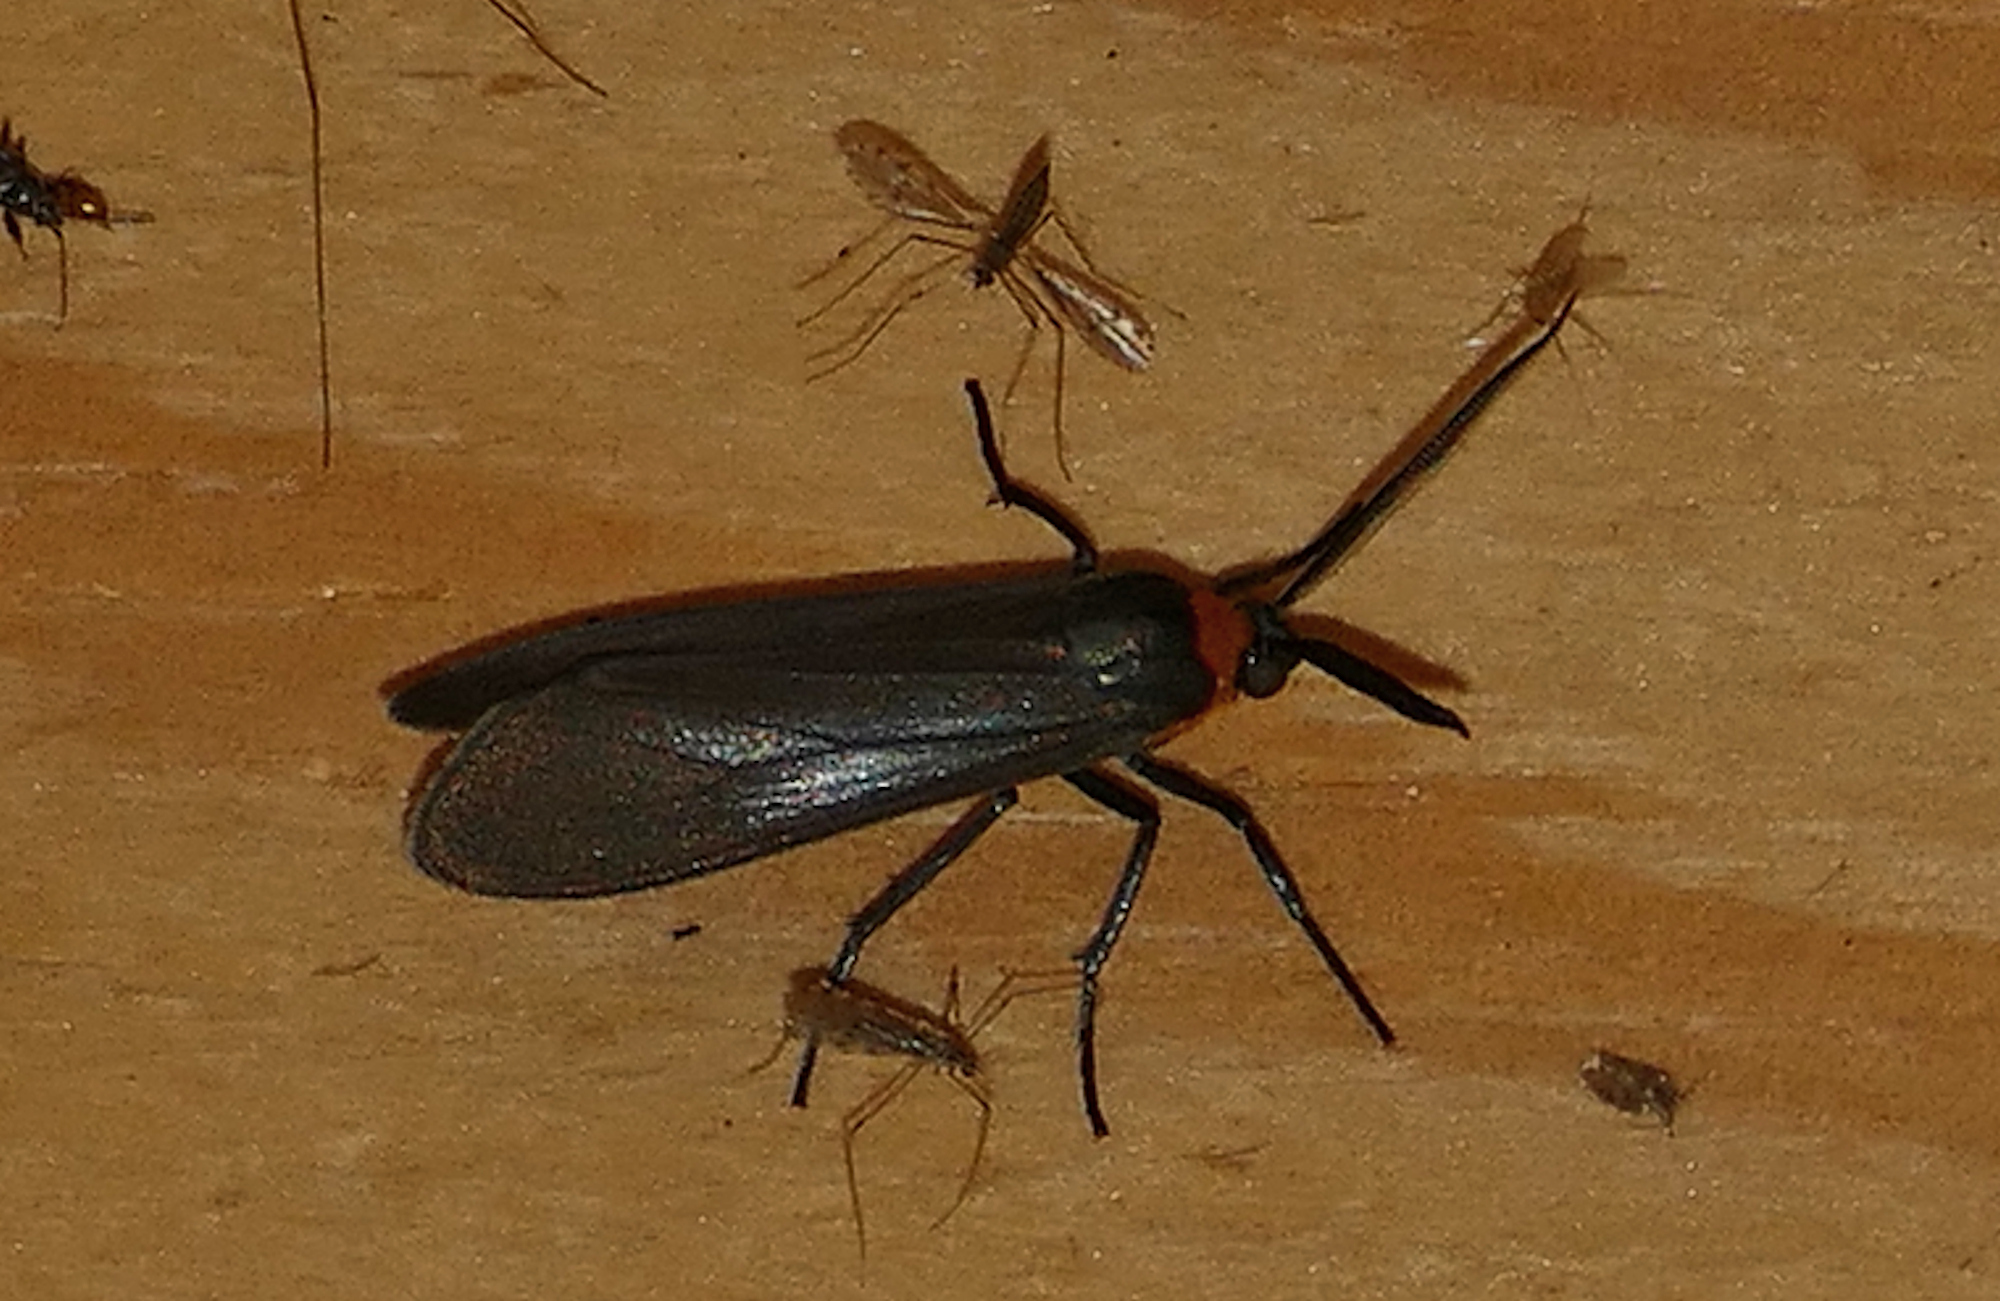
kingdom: Animalia
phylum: Arthropoda
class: Insecta
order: Lepidoptera
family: Erebidae
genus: Cisseps
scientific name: Cisseps fulvicollis
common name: Yellow-collared scape moth
